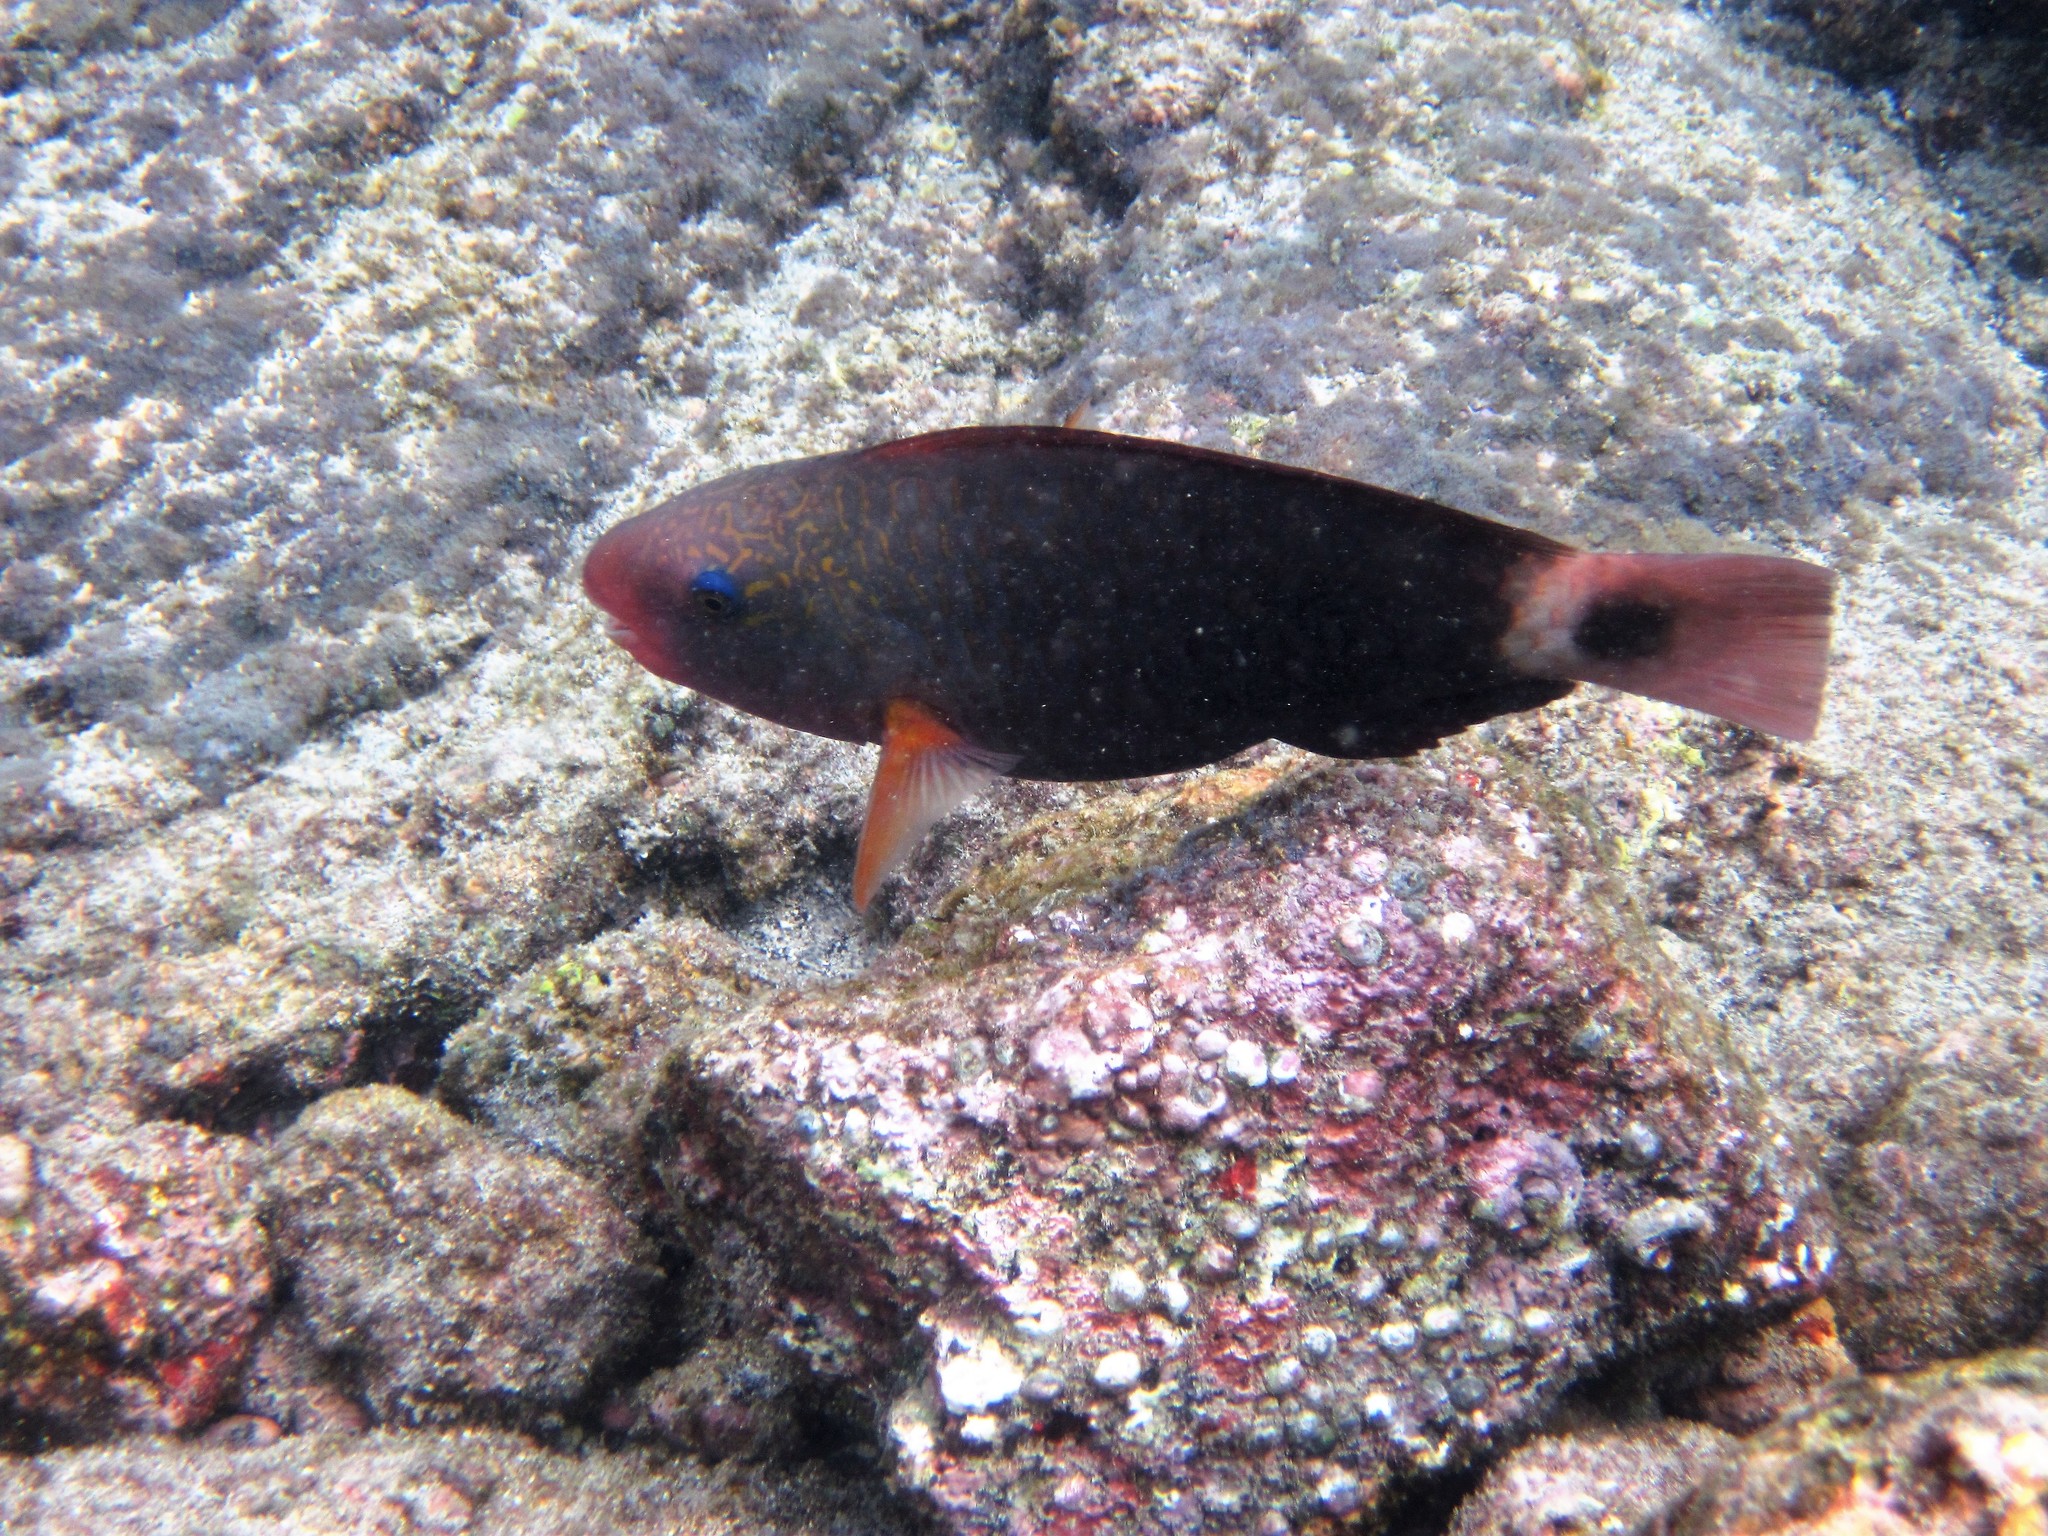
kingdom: Animalia
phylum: Chordata
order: Perciformes
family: Scaridae
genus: Chlorurus
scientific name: Chlorurus spilurus
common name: Bullethead parrotfish
